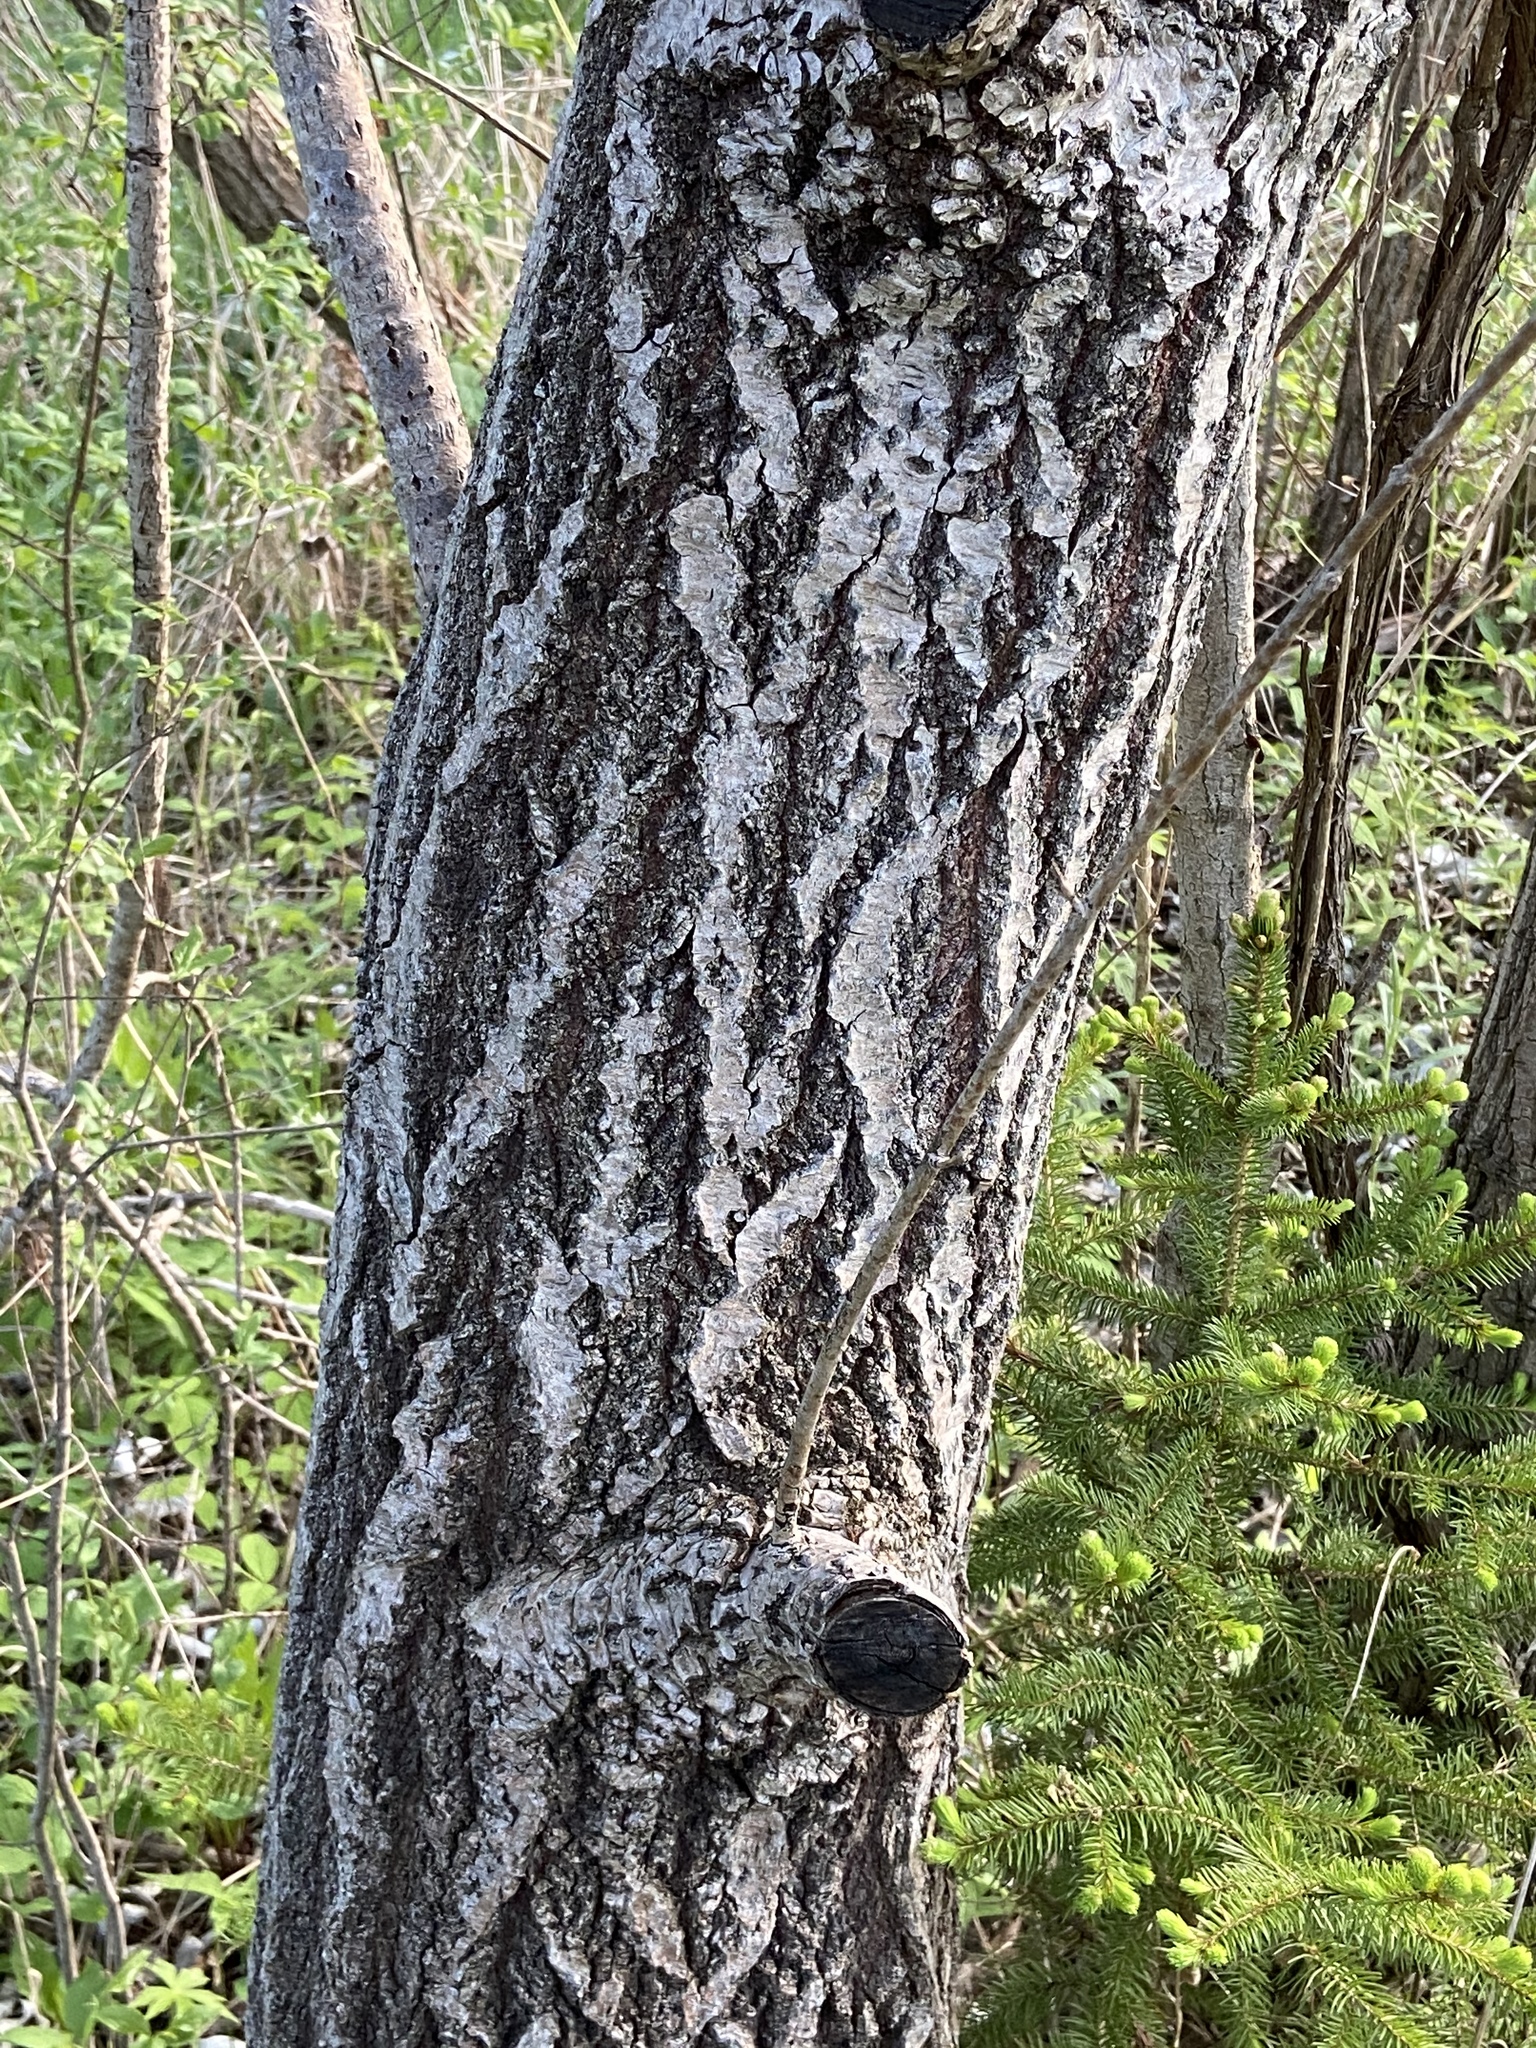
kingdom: Plantae
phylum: Tracheophyta
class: Magnoliopsida
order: Malpighiales
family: Salicaceae
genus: Populus
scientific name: Populus alba
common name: White poplar
